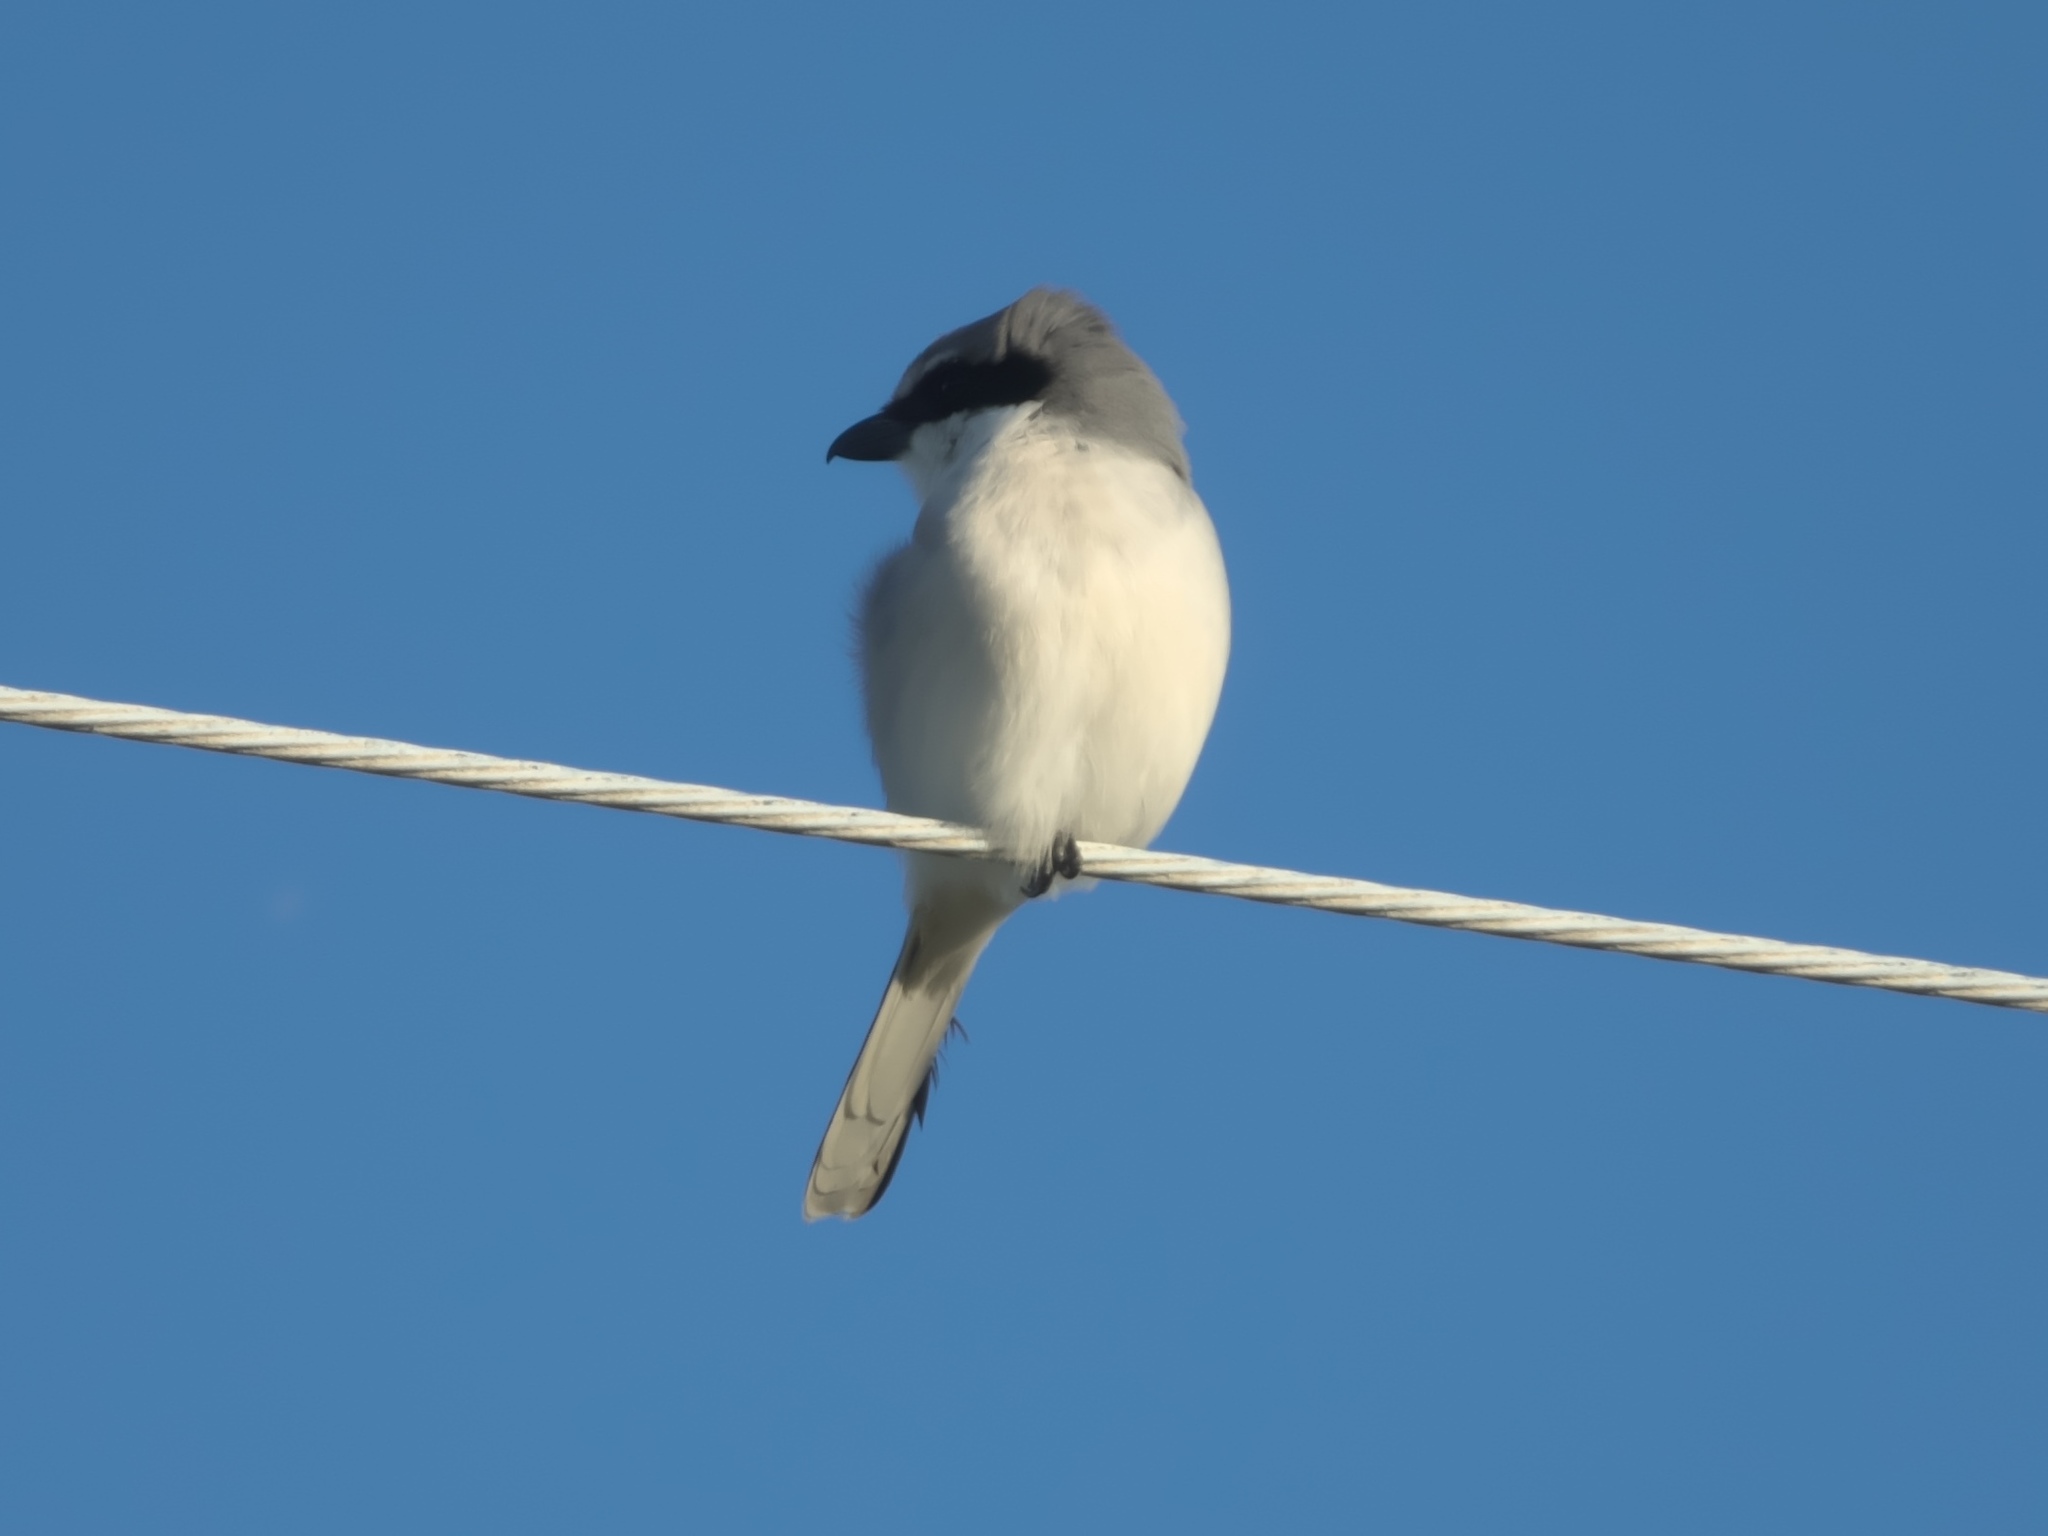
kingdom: Animalia
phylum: Chordata
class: Aves
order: Passeriformes
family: Laniidae
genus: Lanius
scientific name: Lanius ludovicianus
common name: Loggerhead shrike
